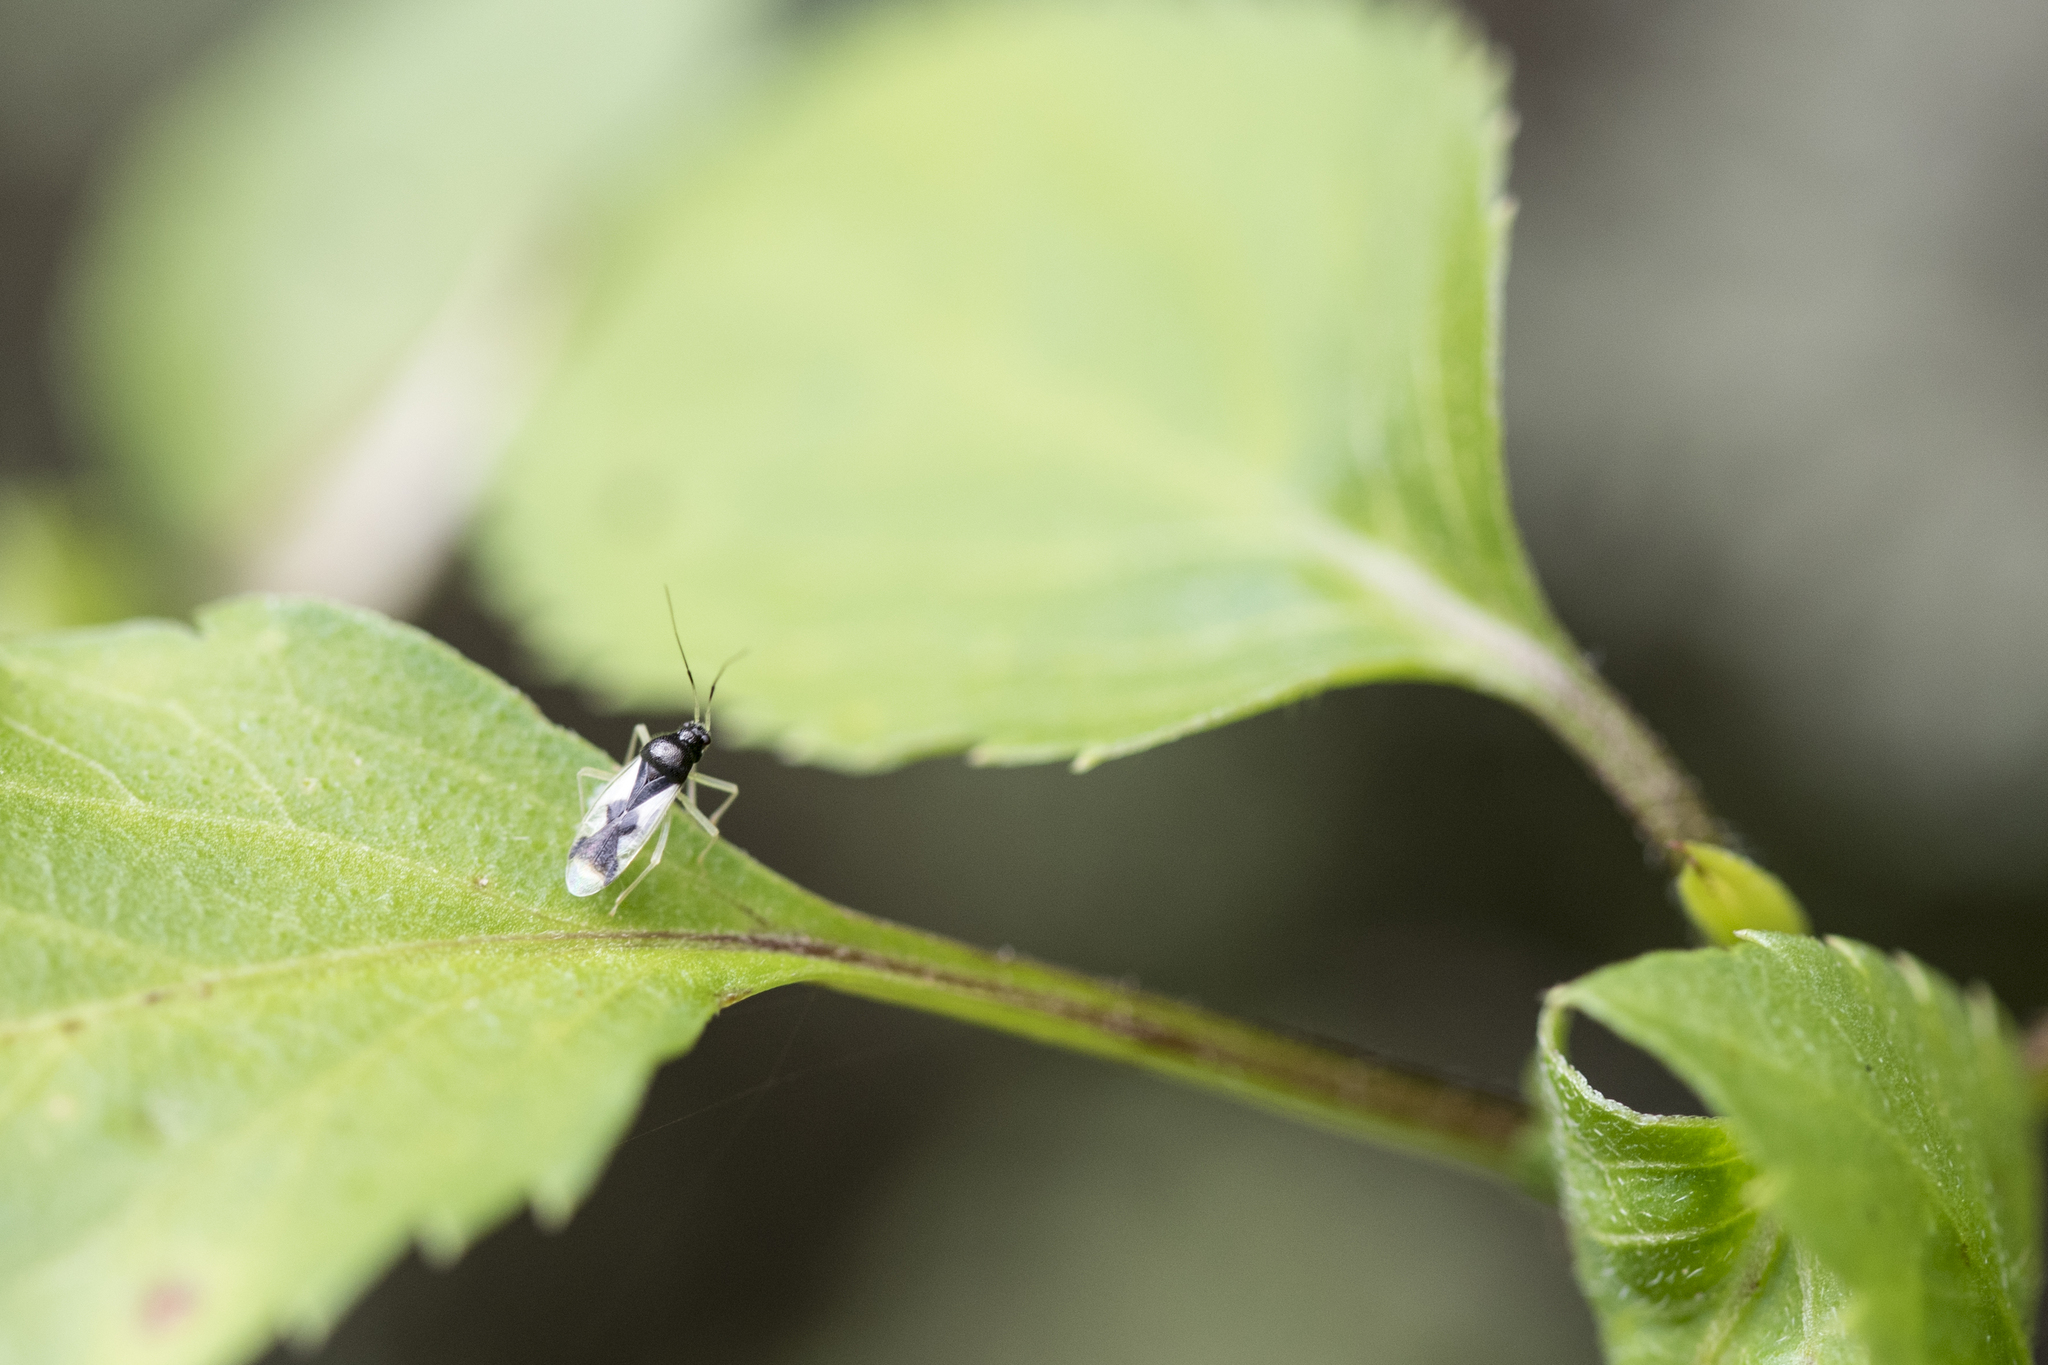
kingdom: Animalia
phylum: Arthropoda
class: Insecta
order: Hemiptera
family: Miridae
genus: Ernestinus
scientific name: Ernestinus pallidiscutum
